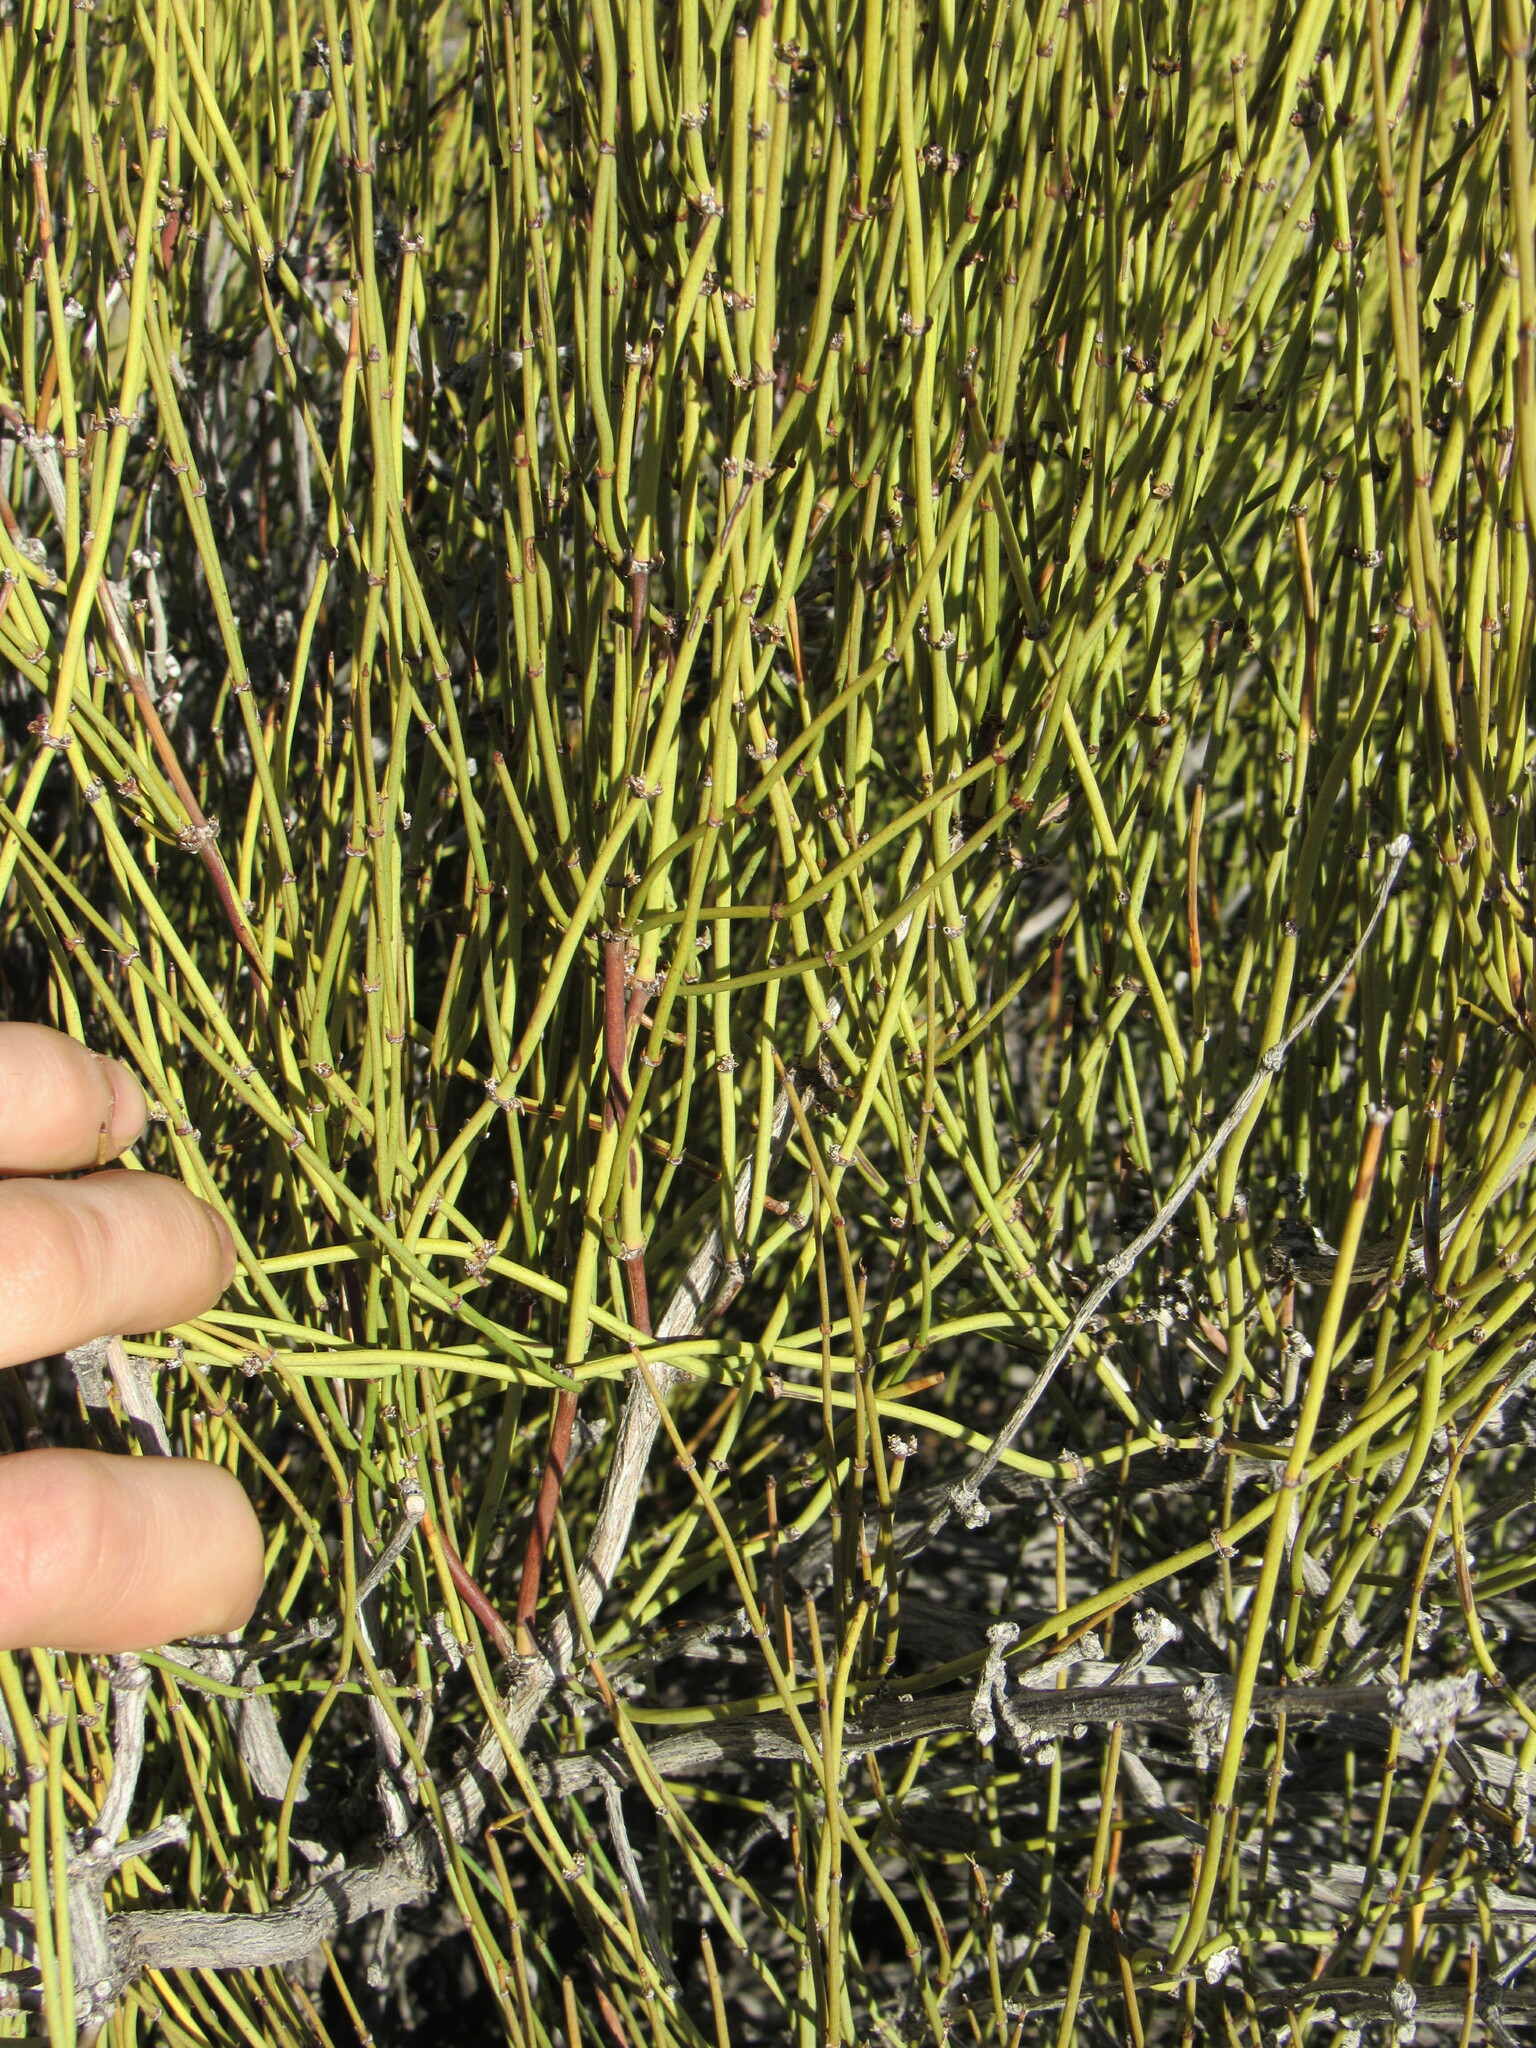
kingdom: Plantae
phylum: Tracheophyta
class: Gnetopsida
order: Ephedrales
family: Ephedraceae
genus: Ephedra
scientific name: Ephedra viridis
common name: Green ephedra
